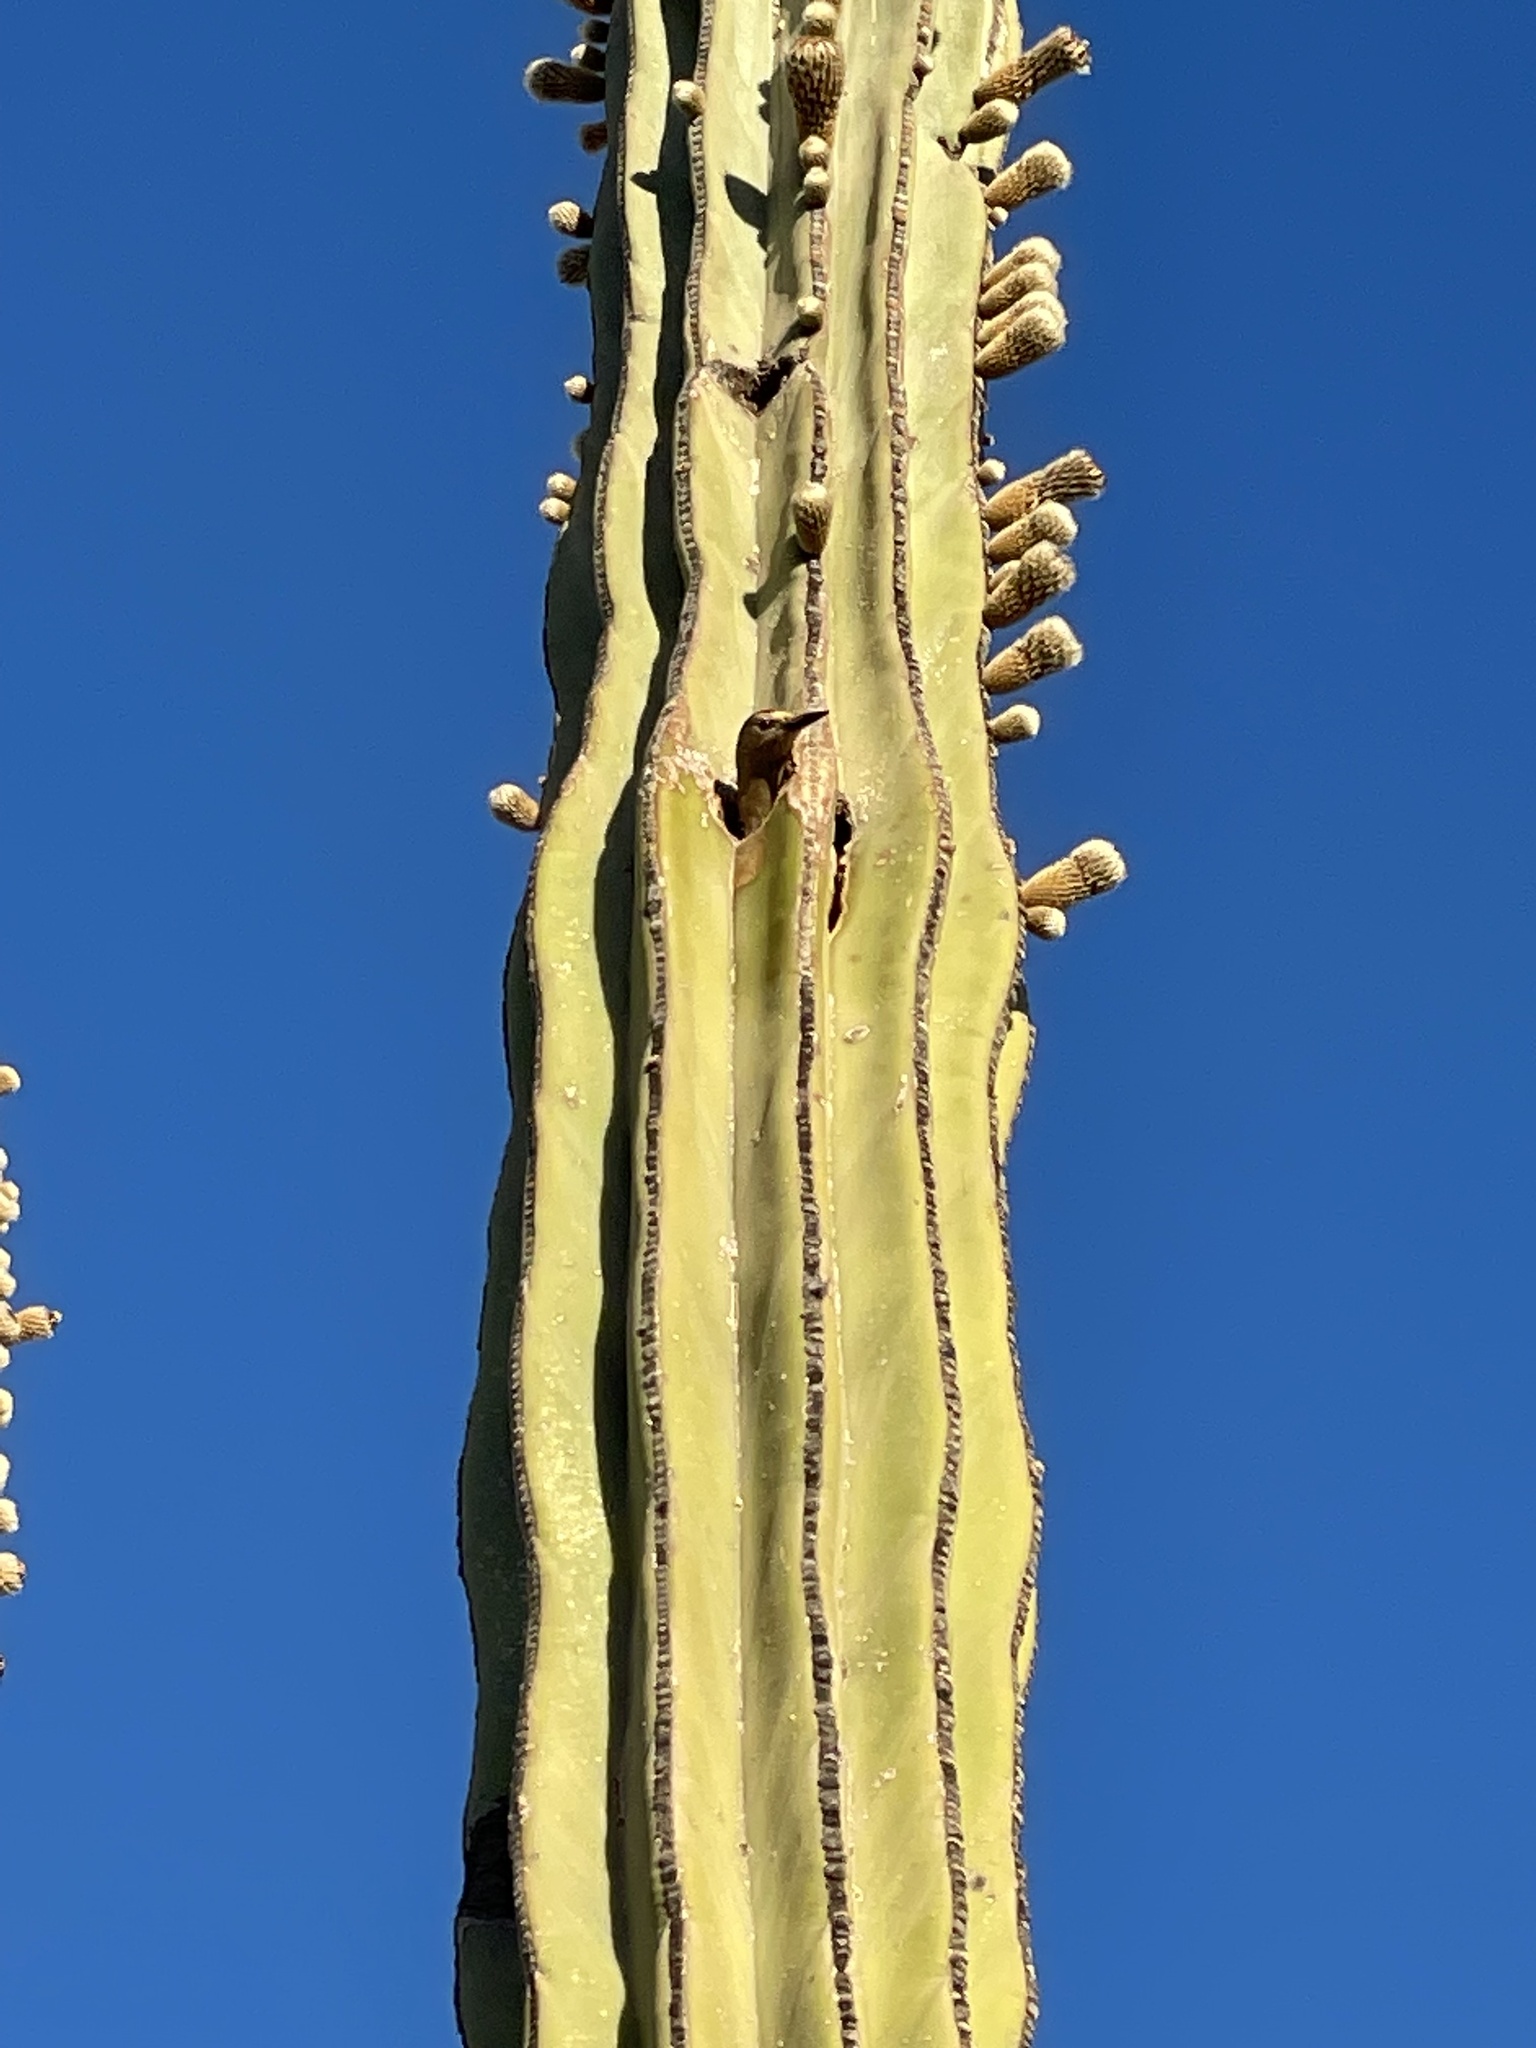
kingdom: Animalia
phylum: Chordata
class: Aves
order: Piciformes
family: Picidae
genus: Melanerpes
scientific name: Melanerpes uropygialis
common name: Gila woodpecker
